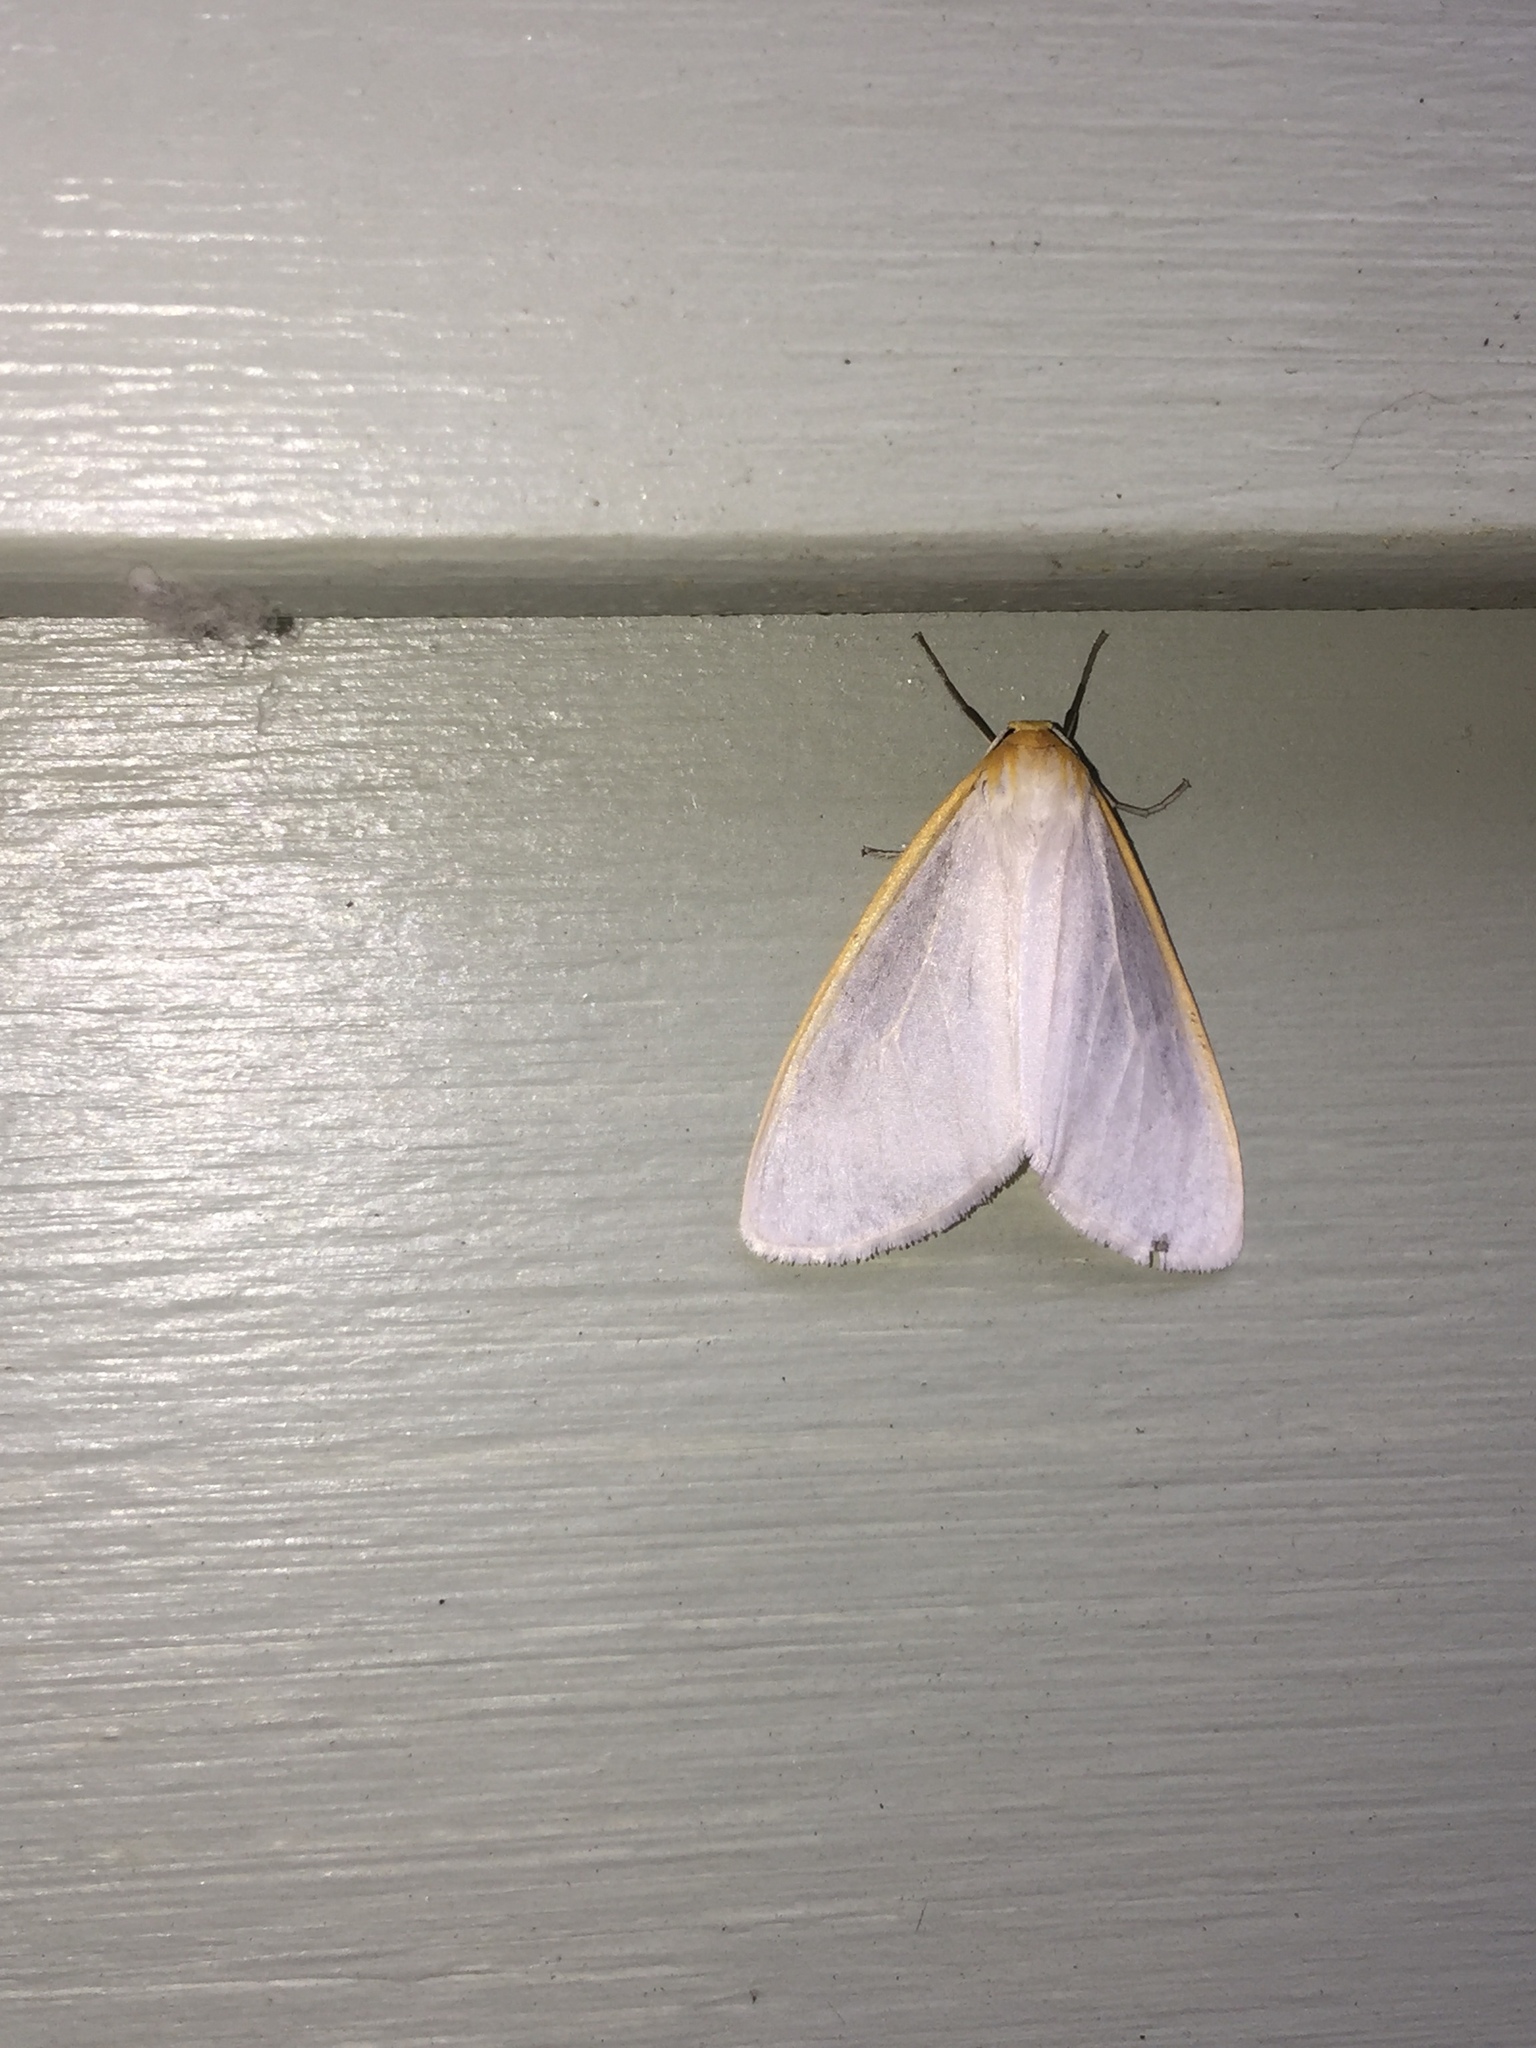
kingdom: Animalia
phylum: Arthropoda
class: Insecta
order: Lepidoptera
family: Erebidae
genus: Cycnia
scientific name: Cycnia tenera
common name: Delicate cycnia moth
